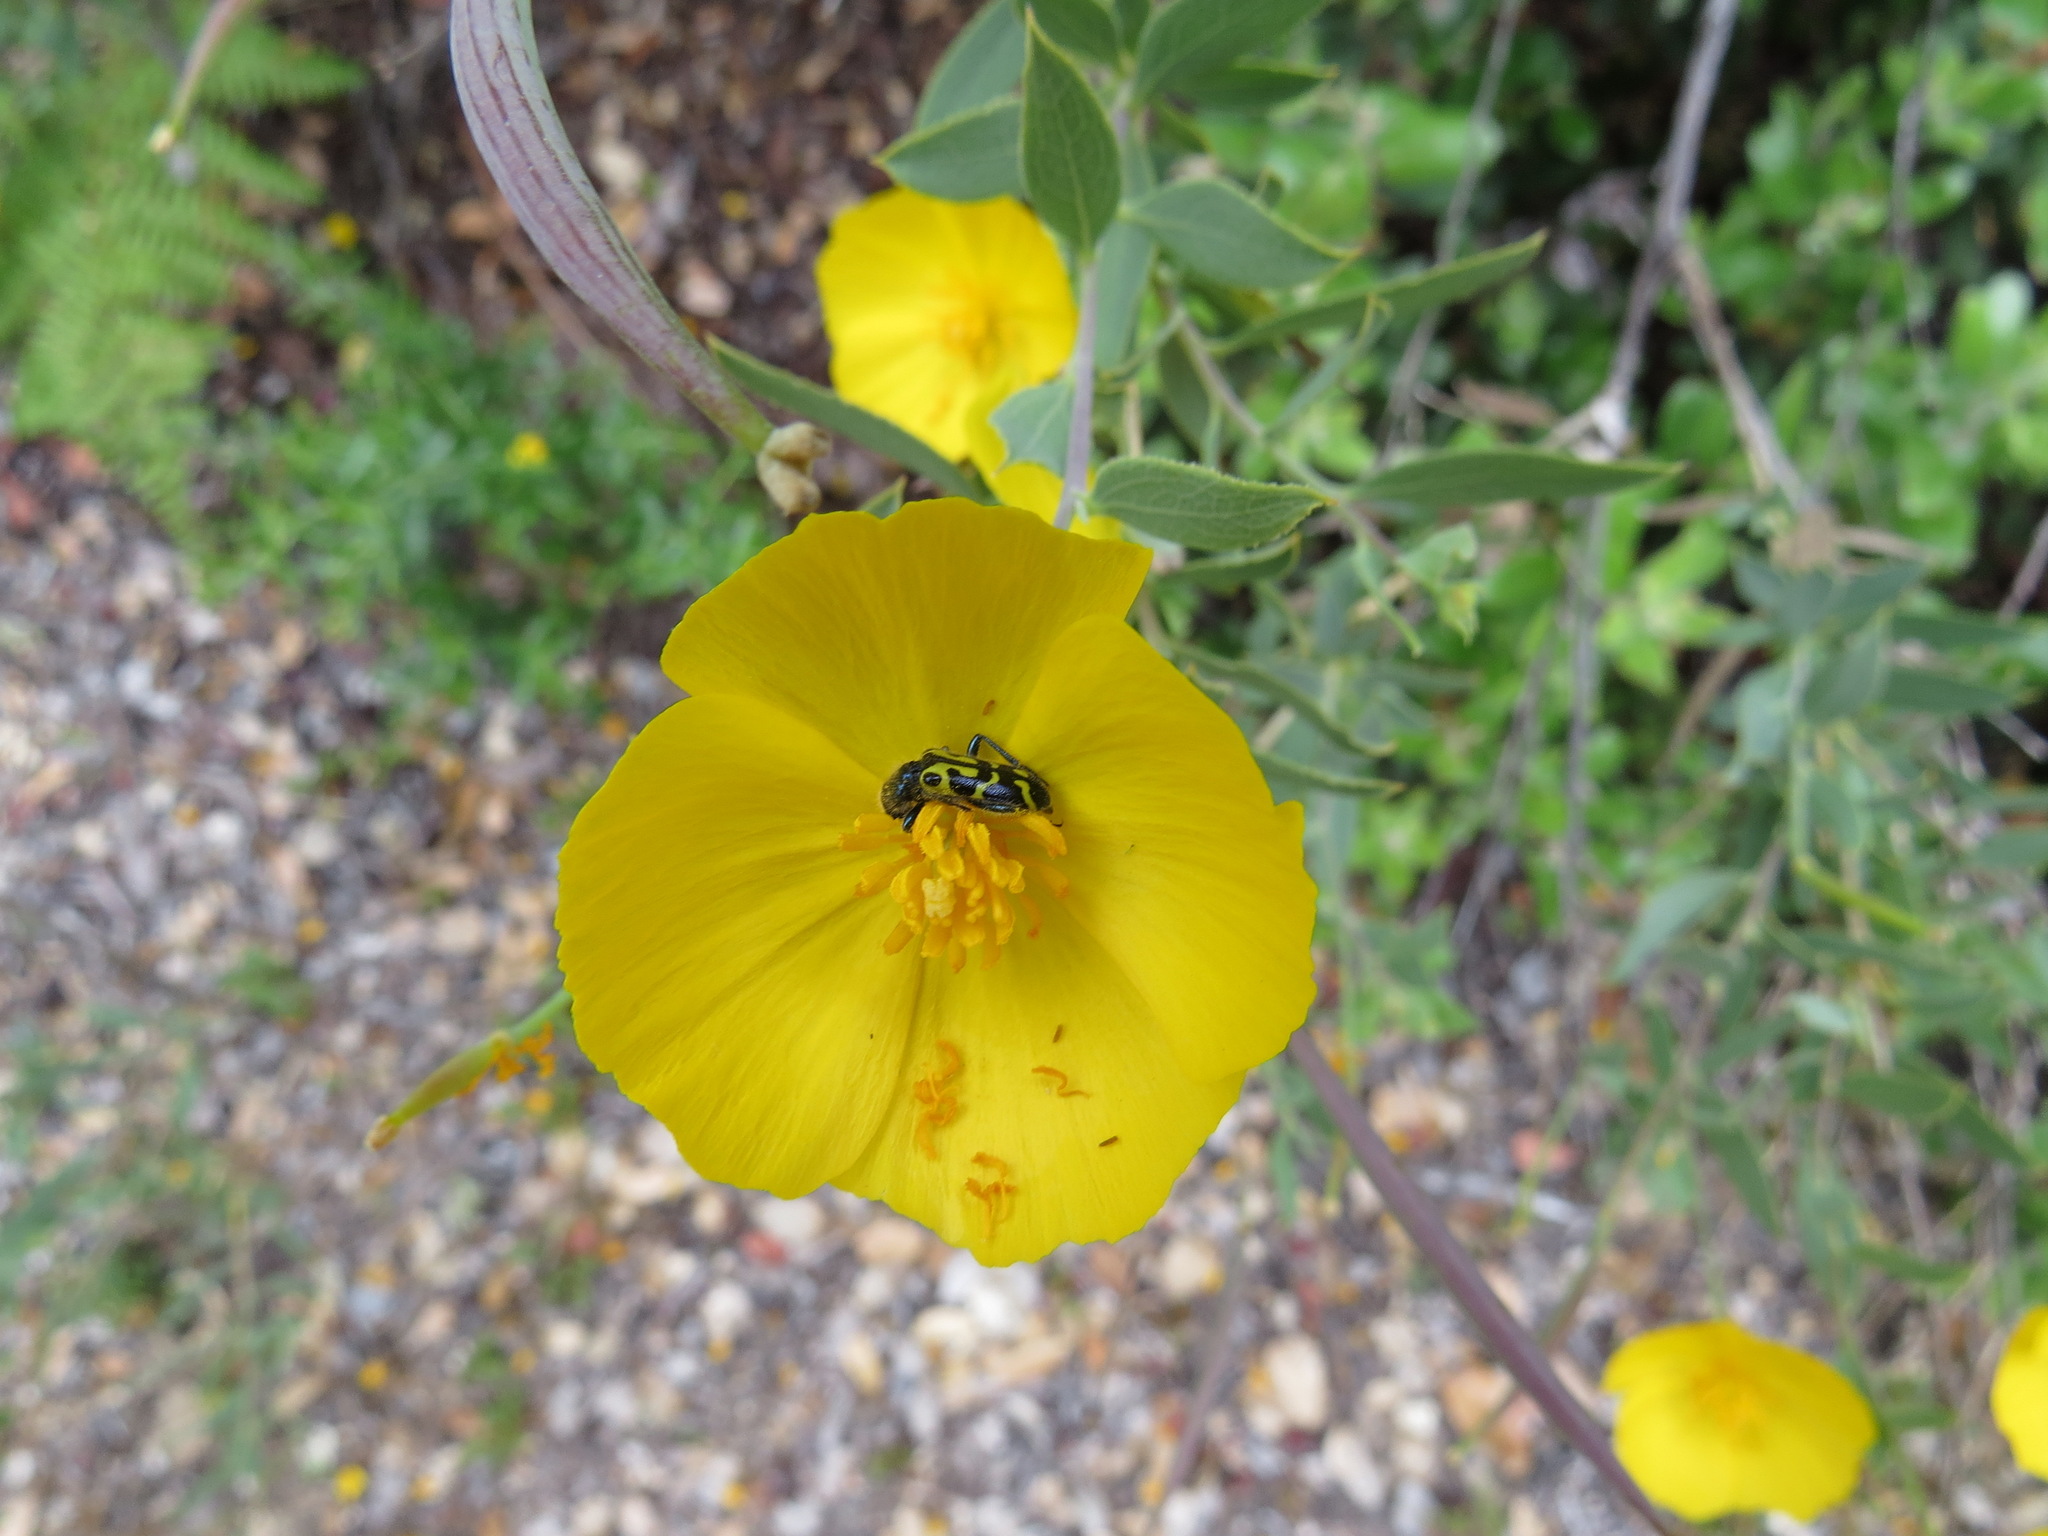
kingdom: Animalia
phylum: Arthropoda
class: Insecta
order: Coleoptera
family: Cleridae
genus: Trichodes
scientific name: Trichodes ornatus
